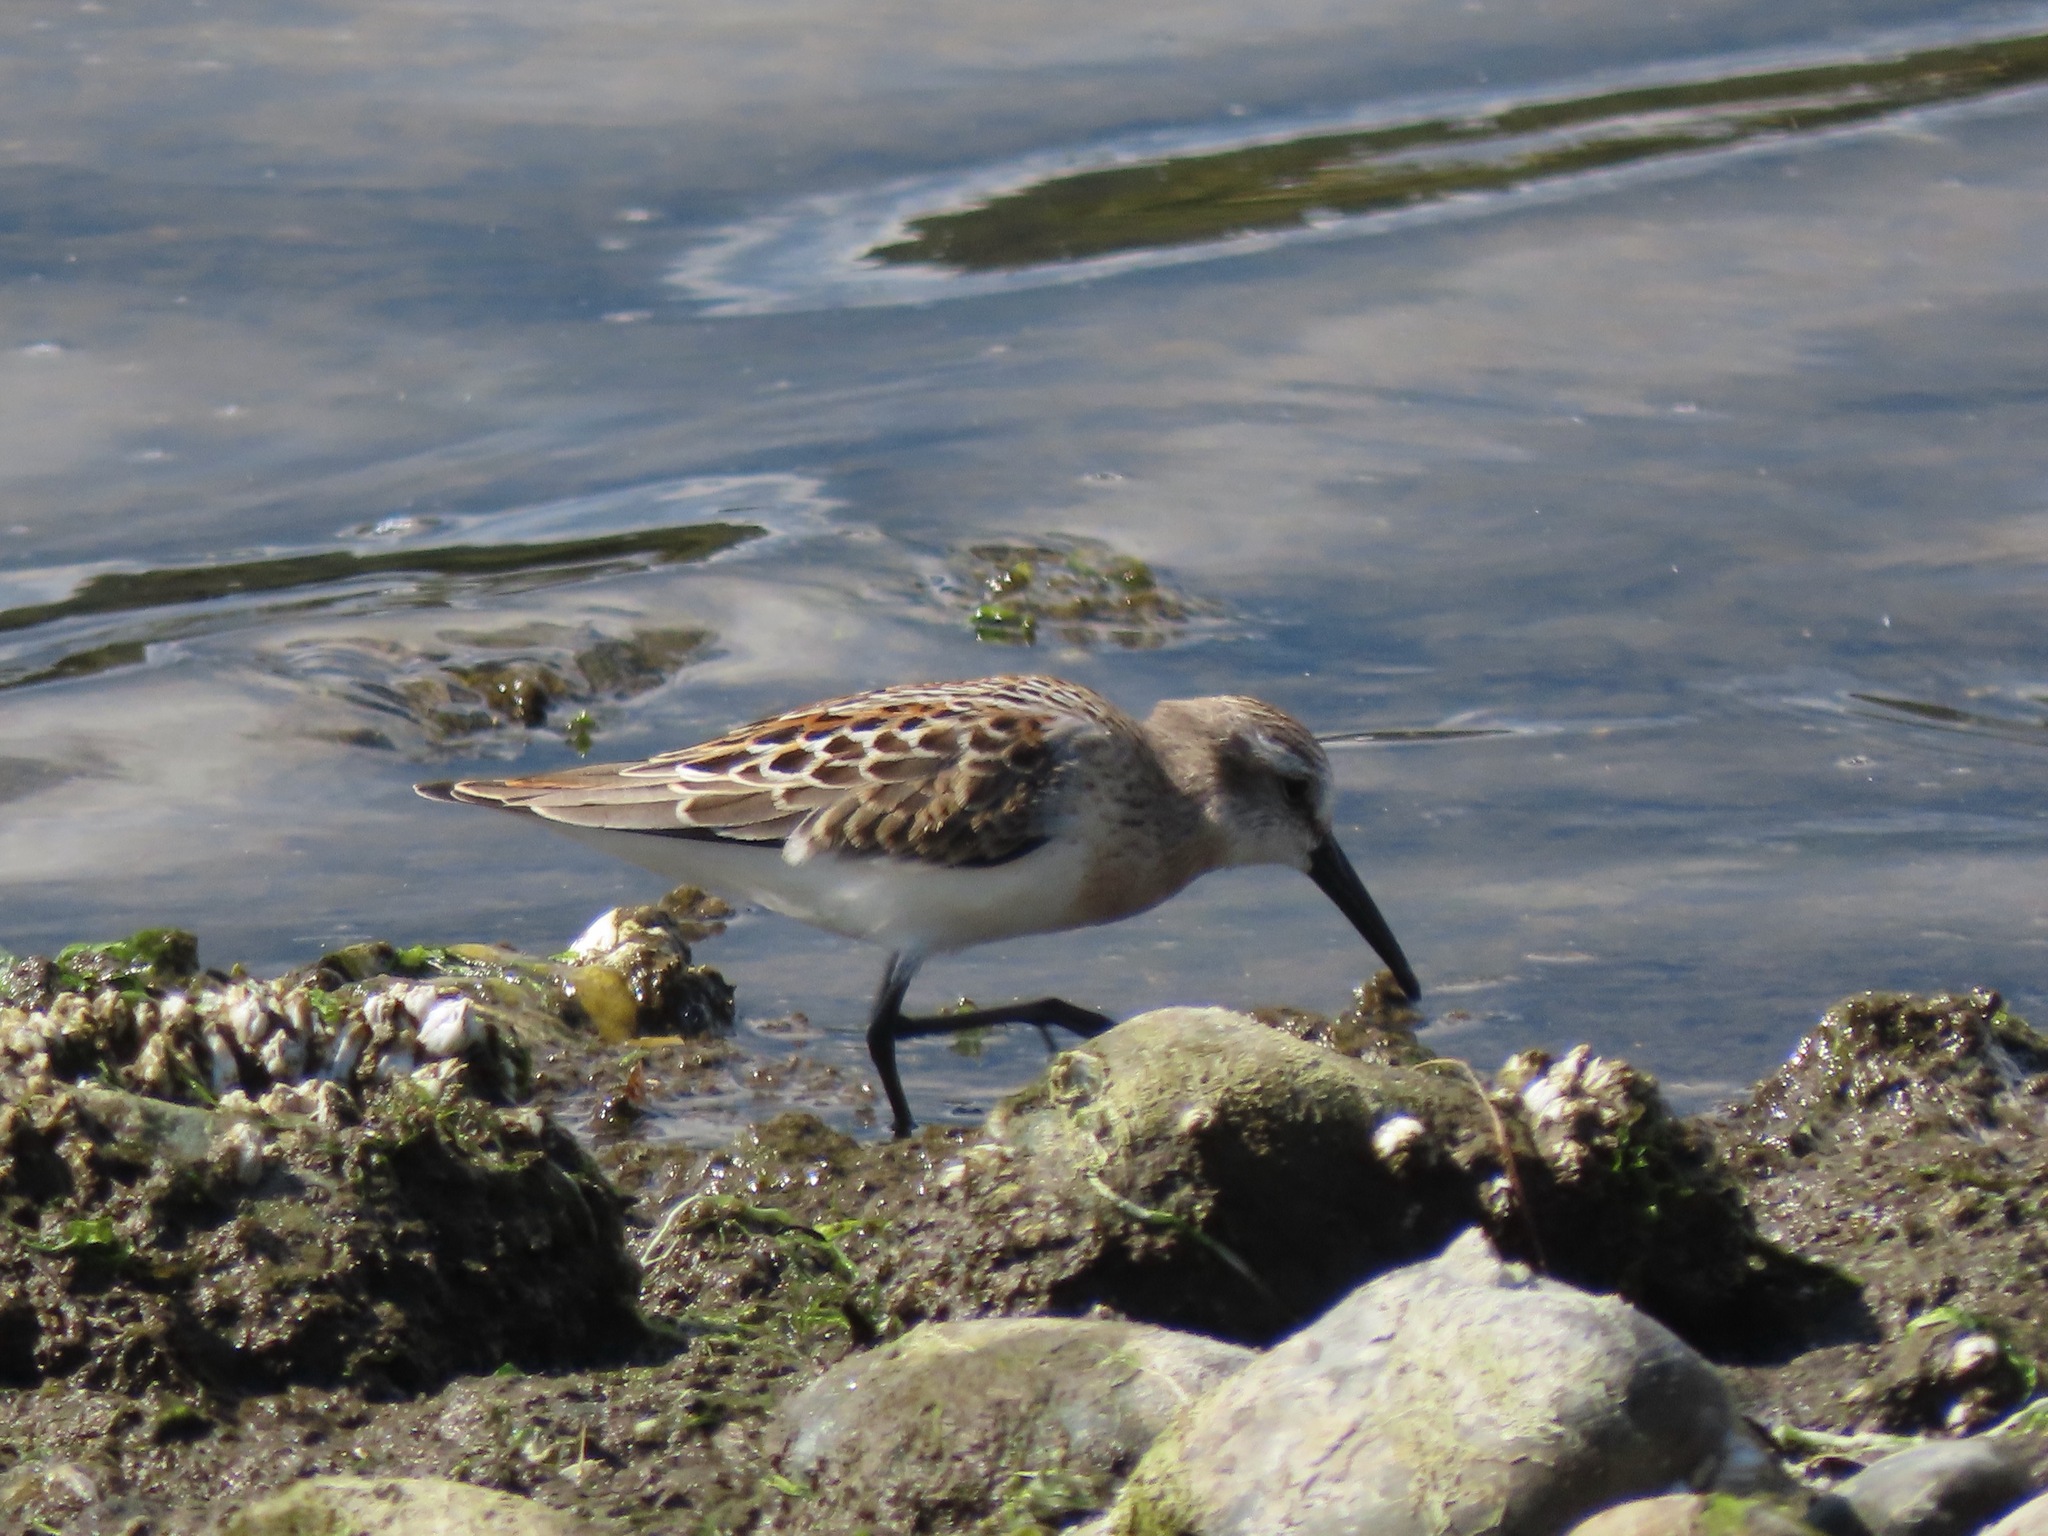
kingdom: Animalia
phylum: Chordata
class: Aves
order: Charadriiformes
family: Scolopacidae
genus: Calidris
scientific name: Calidris mauri
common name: Western sandpiper
